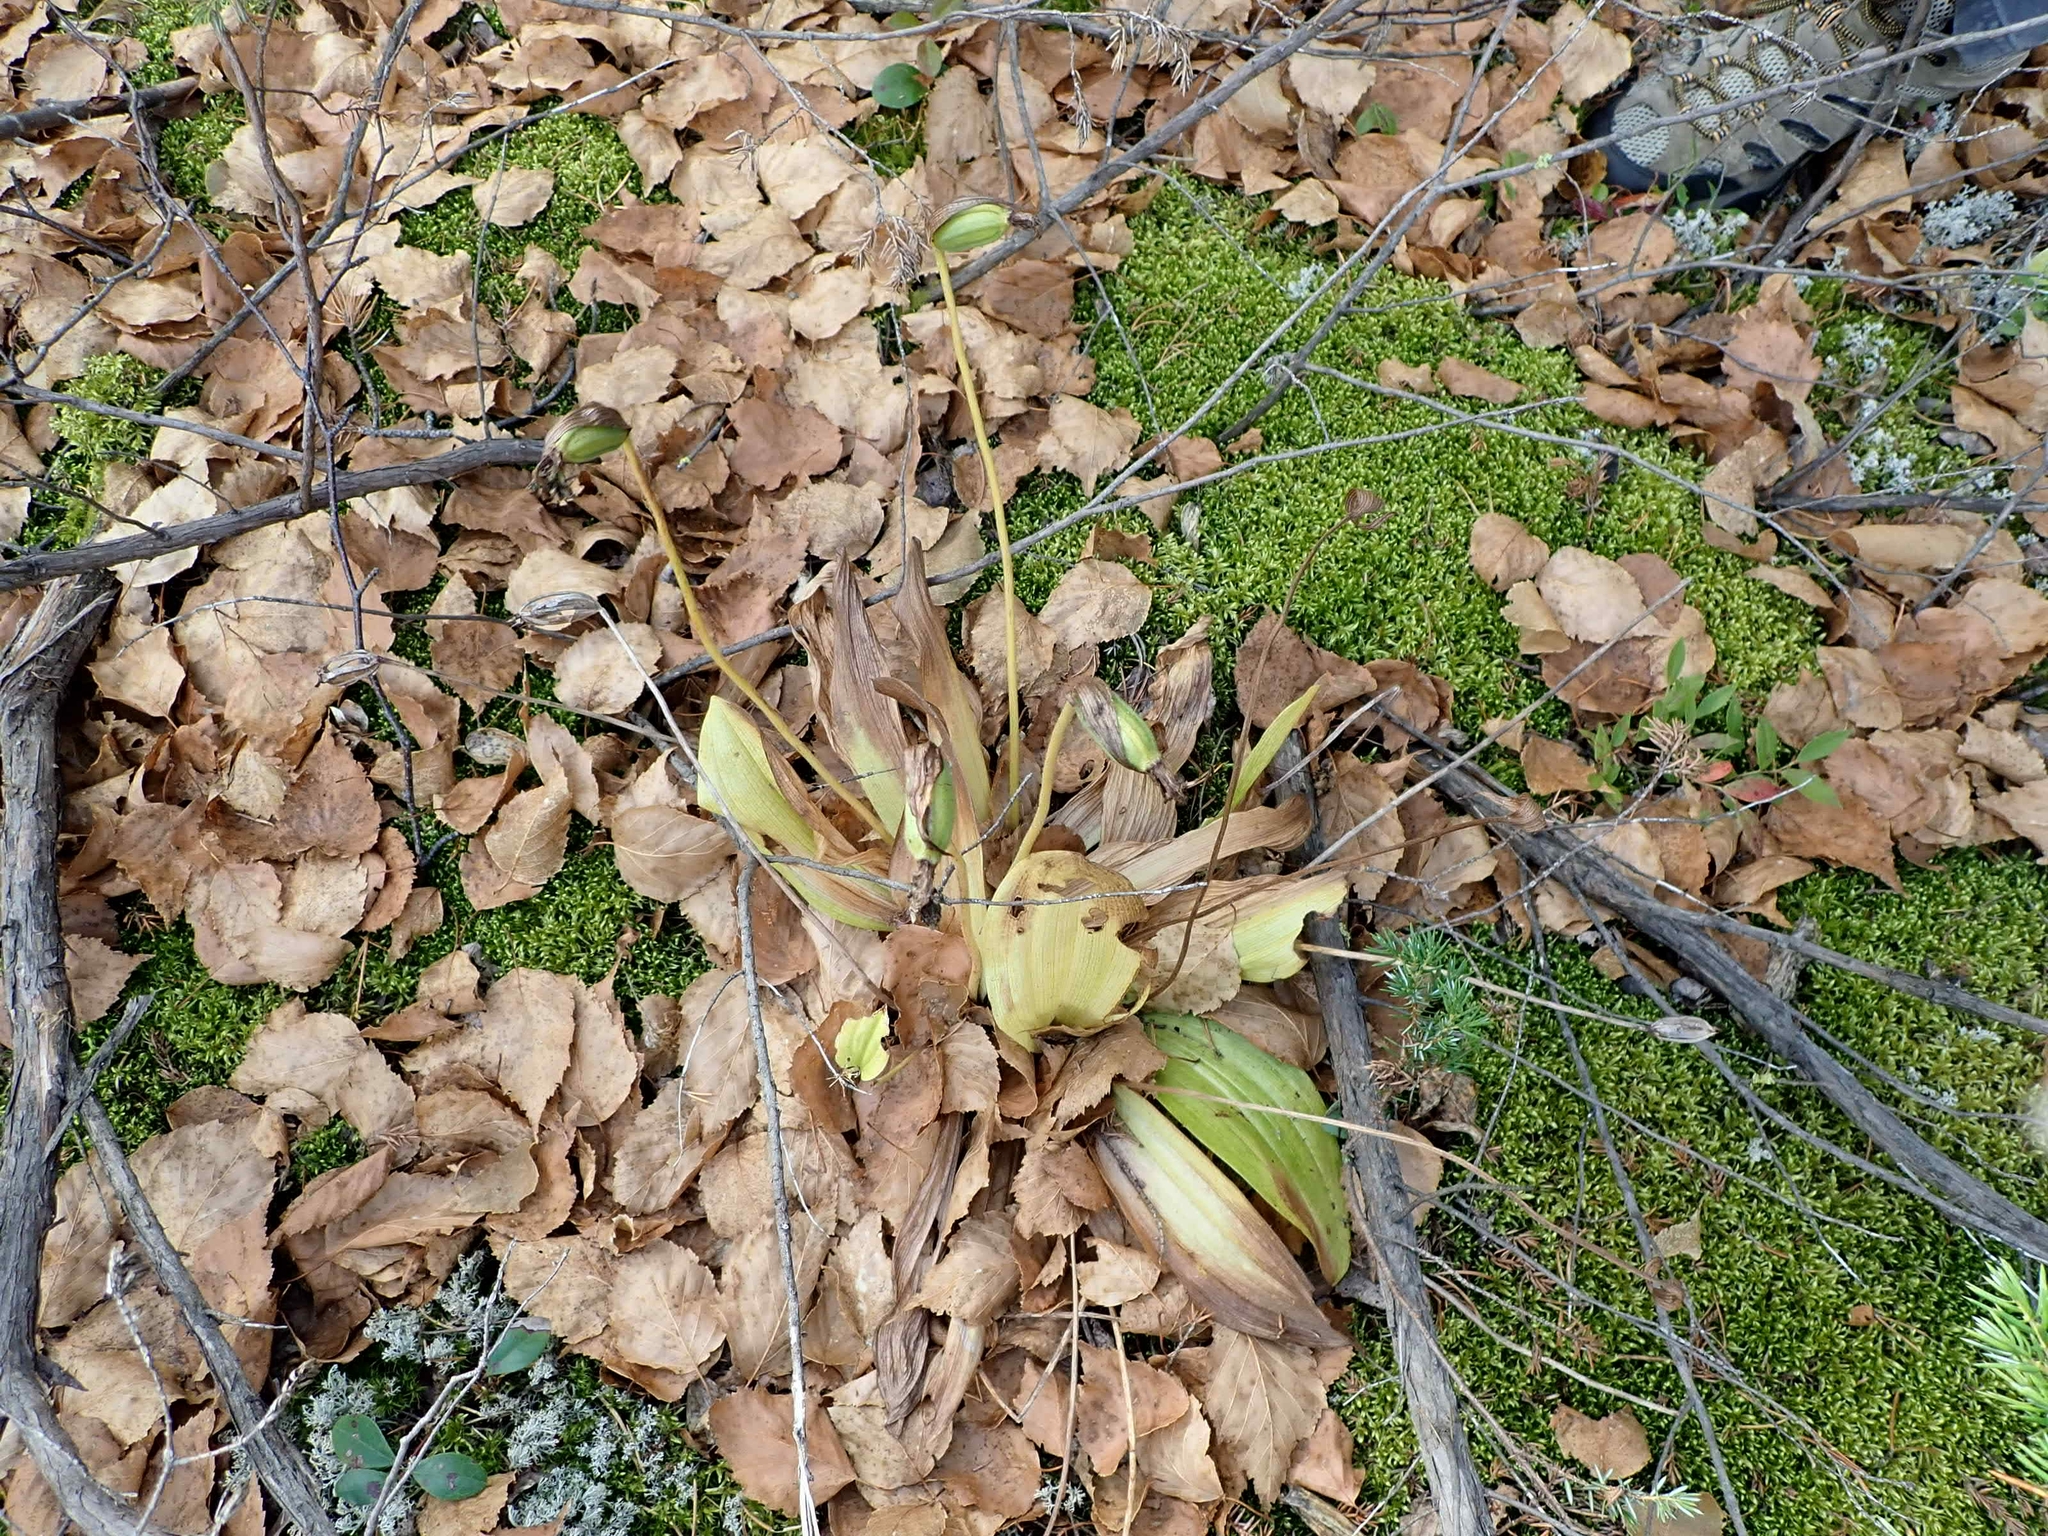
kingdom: Plantae
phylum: Tracheophyta
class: Liliopsida
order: Asparagales
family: Orchidaceae
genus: Cypripedium
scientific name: Cypripedium acaule
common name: Pink lady's-slipper
